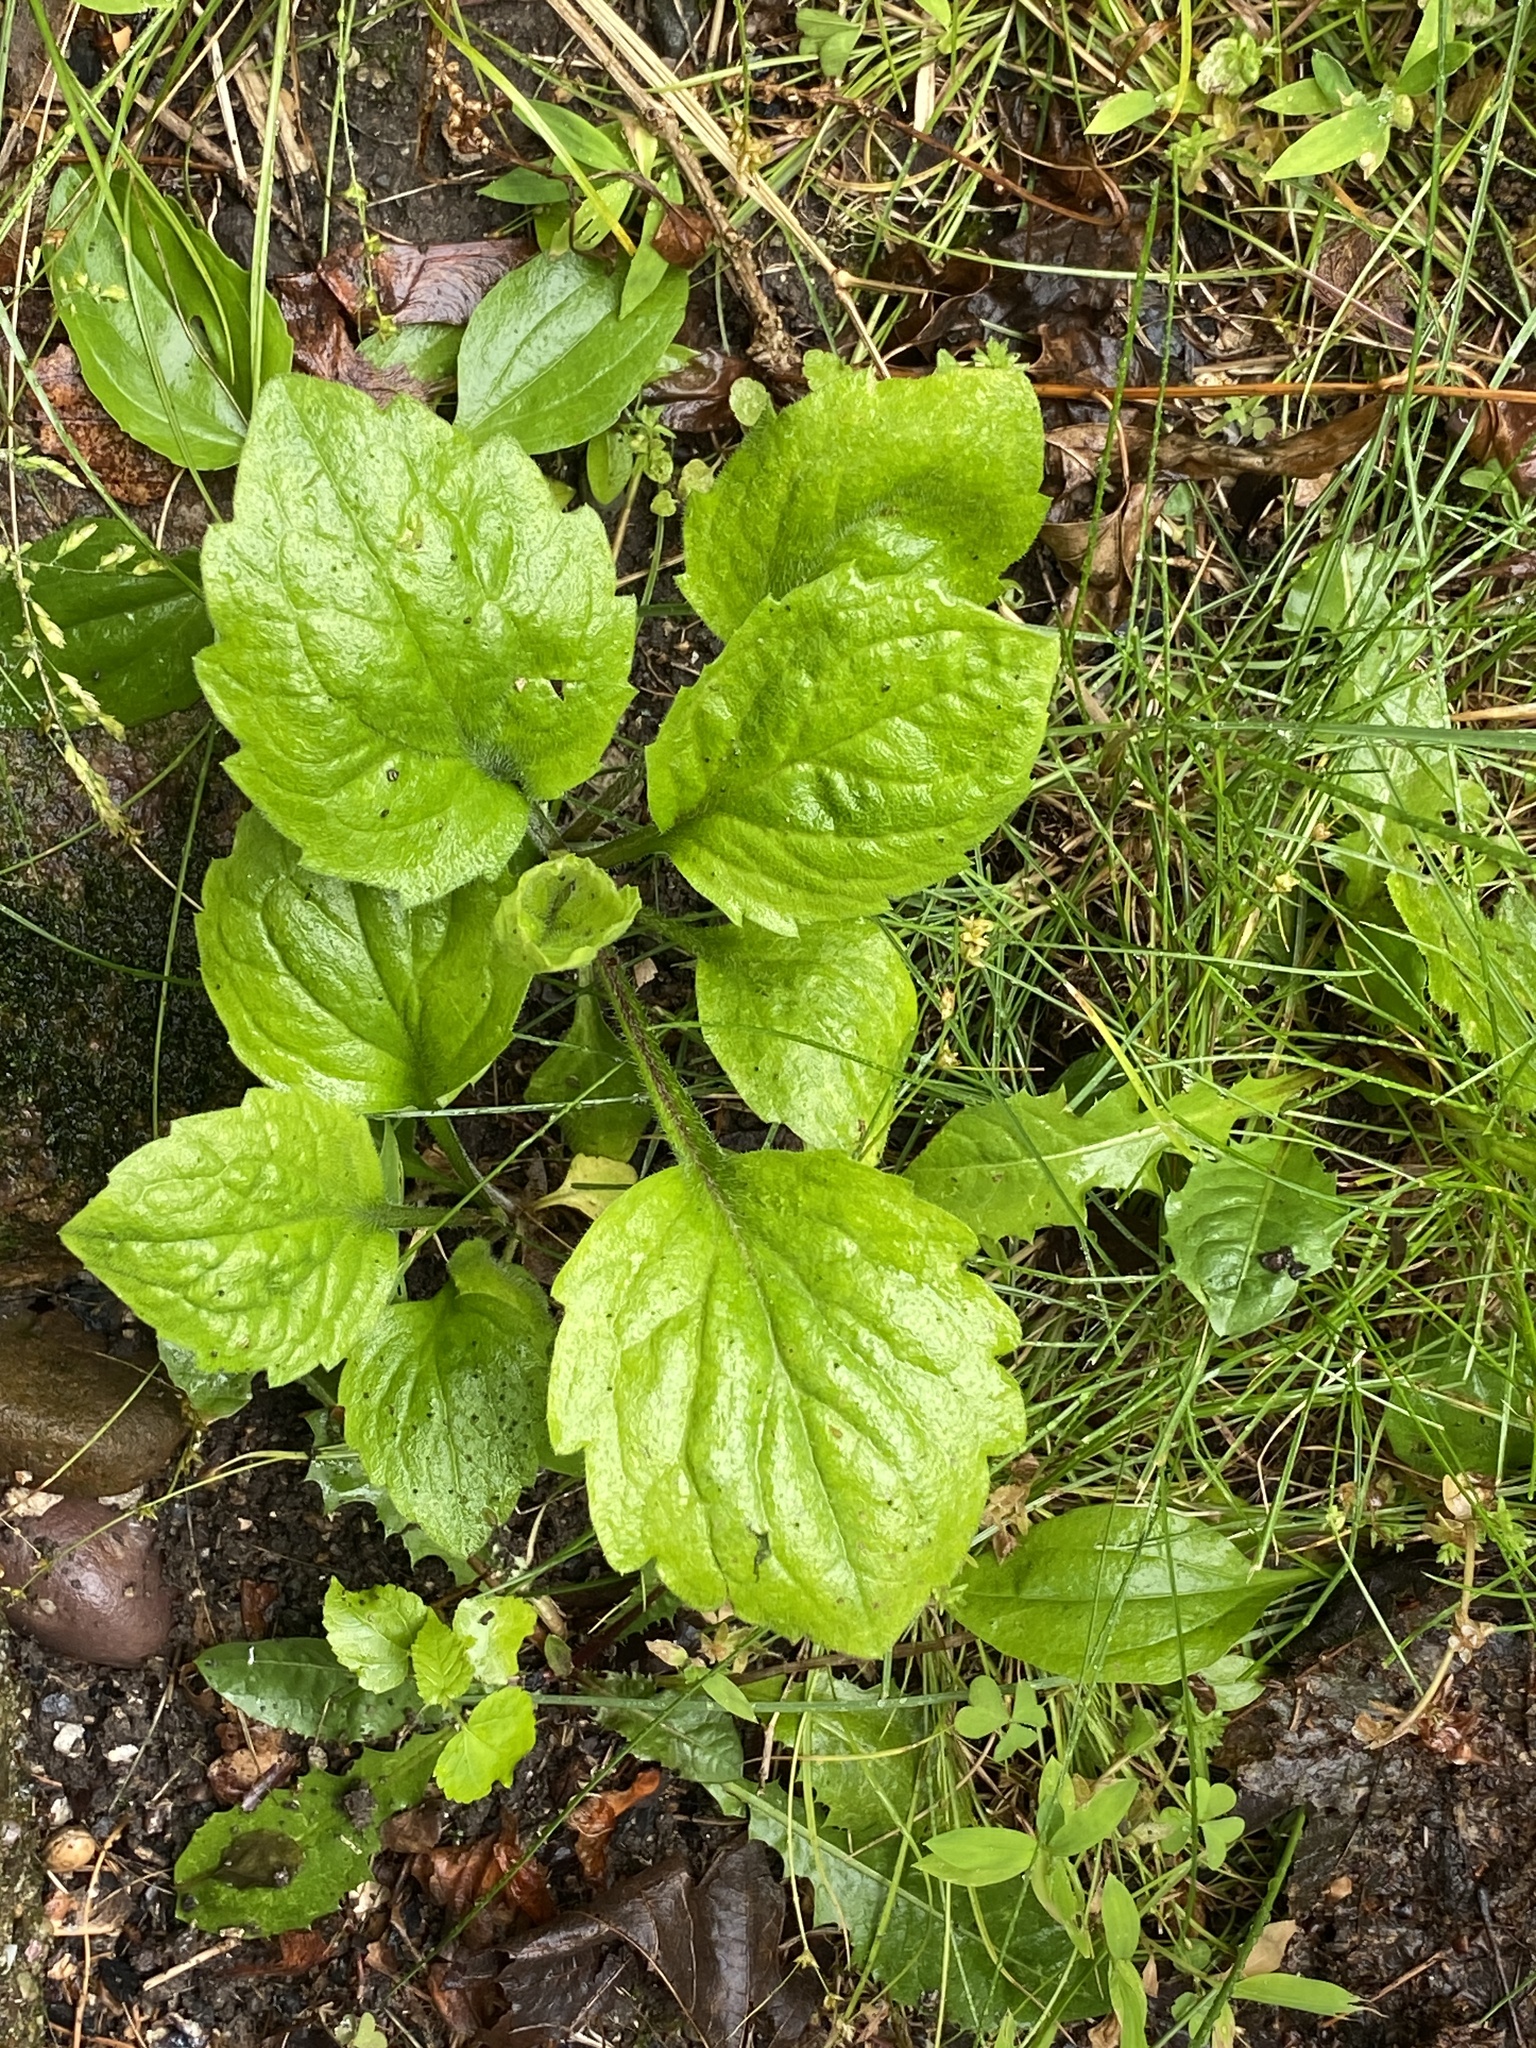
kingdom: Plantae
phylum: Tracheophyta
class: Magnoliopsida
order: Asterales
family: Asteraceae
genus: Erigeron
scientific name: Erigeron annuus
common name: Tall fleabane
